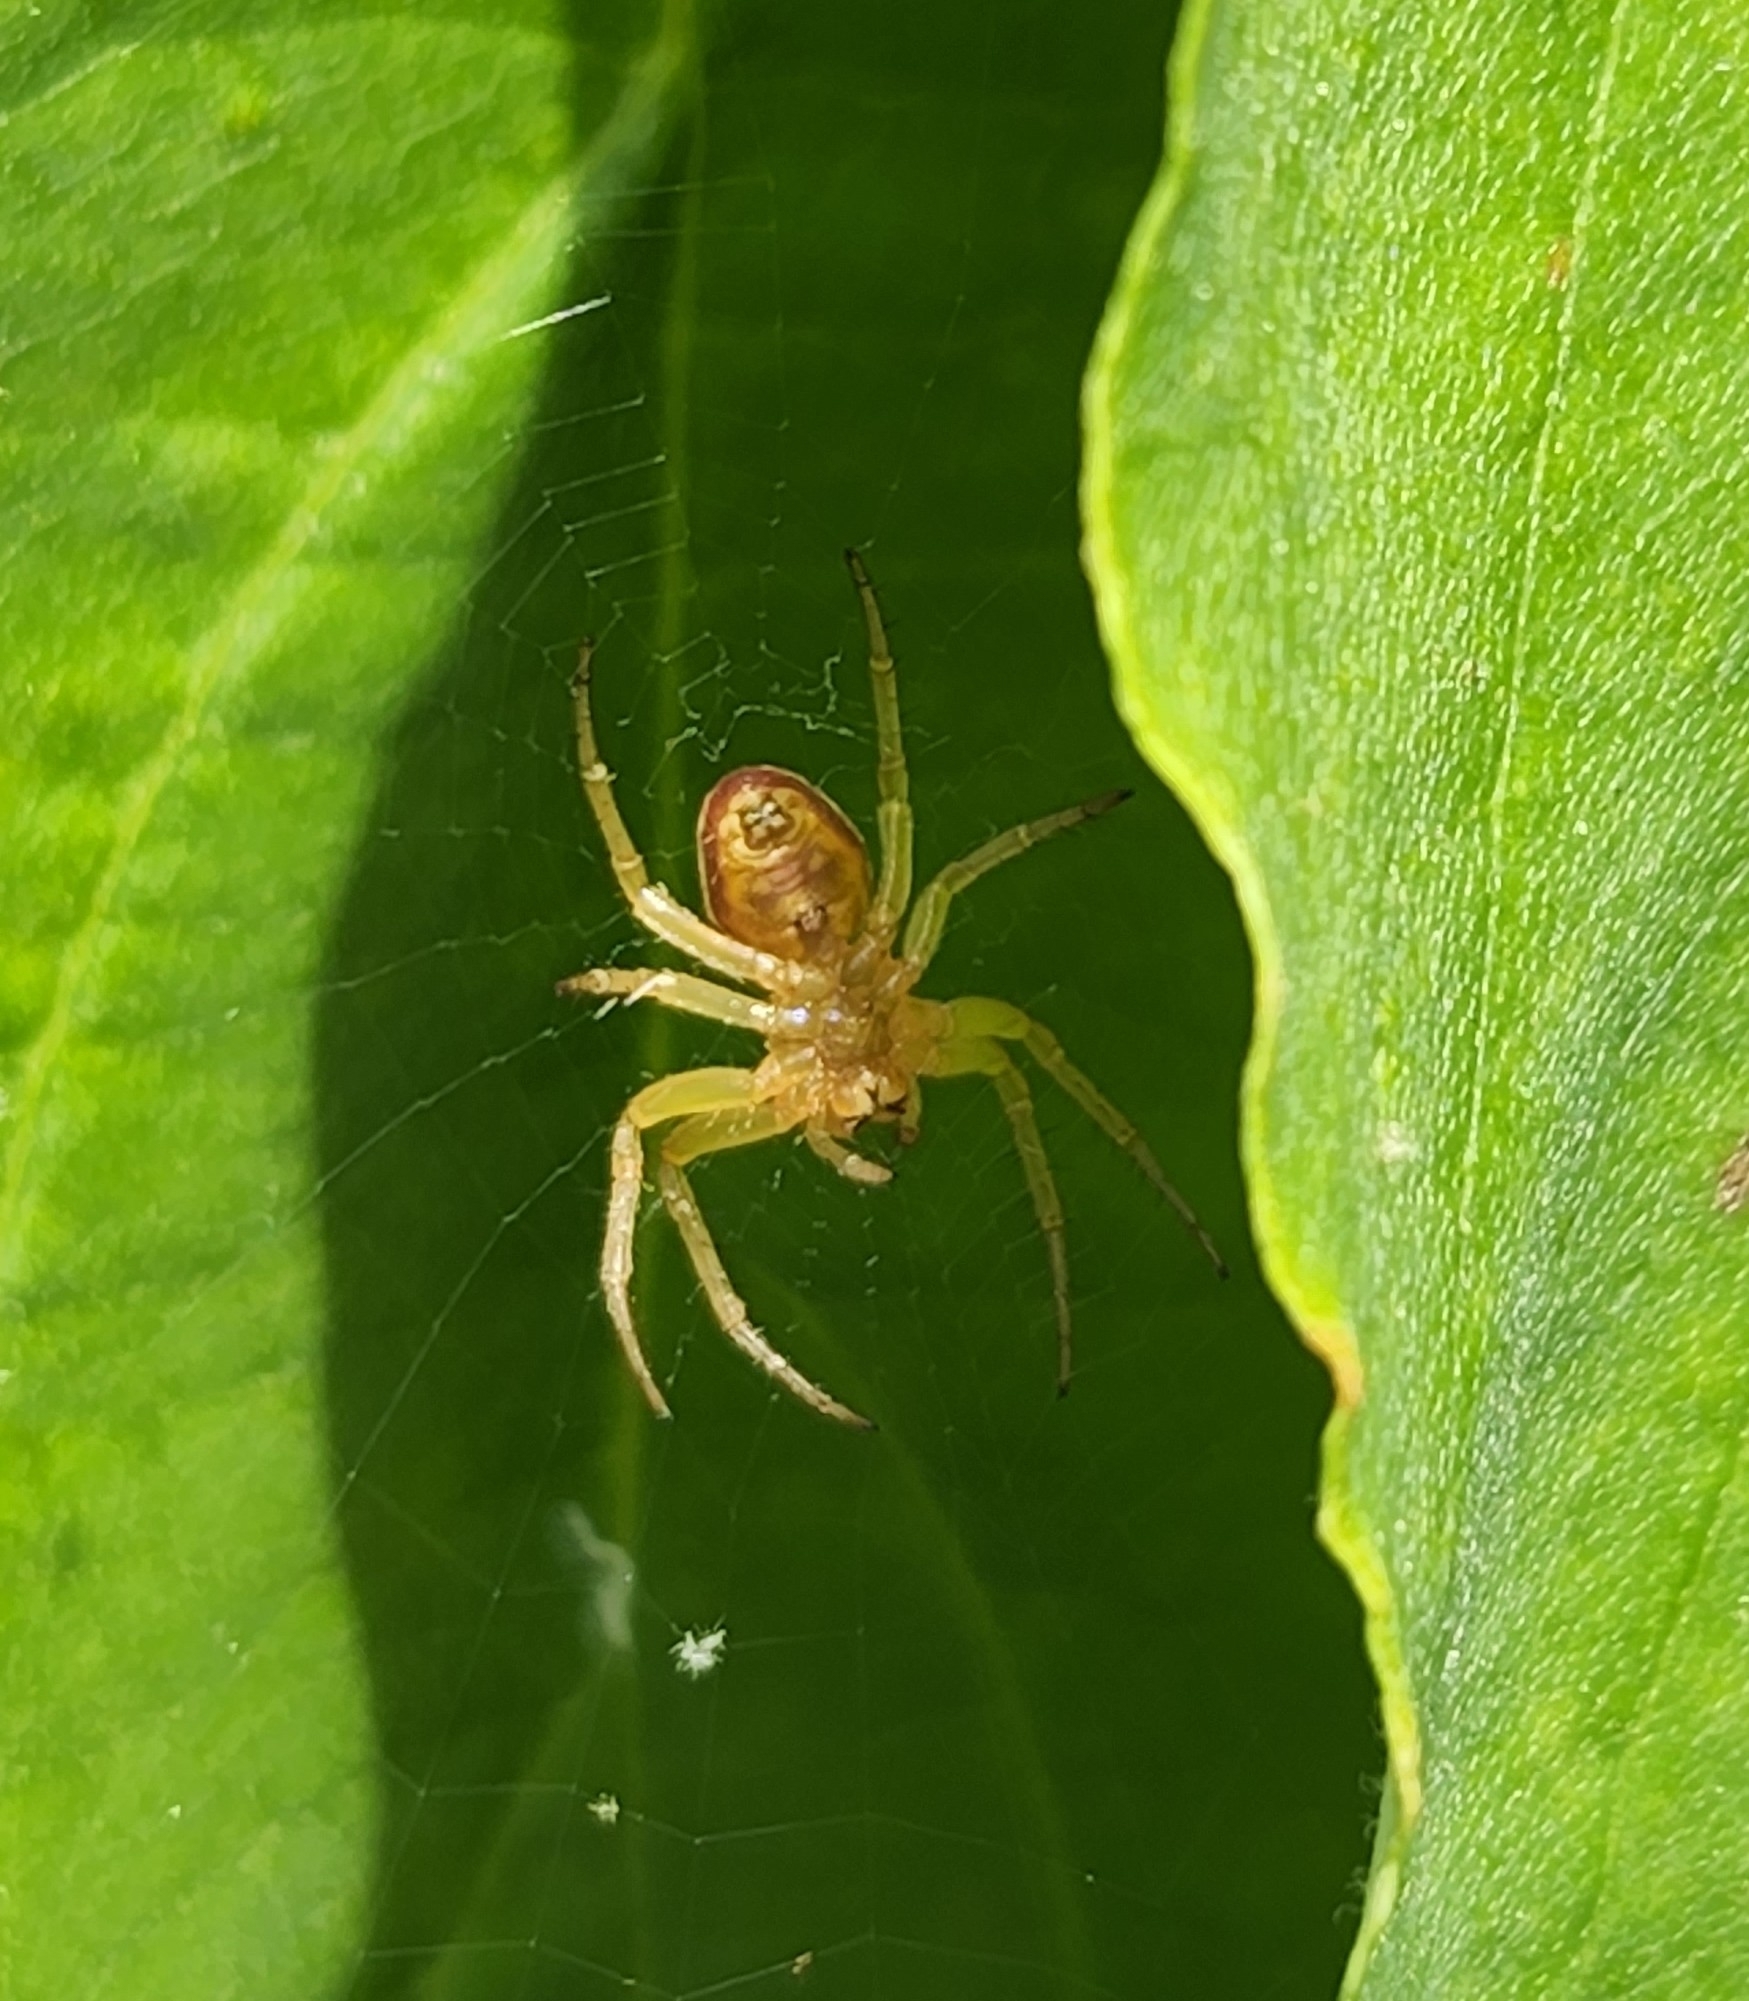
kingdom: Animalia
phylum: Arthropoda
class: Arachnida
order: Araneae
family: Araneidae
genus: Araniella
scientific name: Araniella displicata
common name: Sixspotted orb weaver
